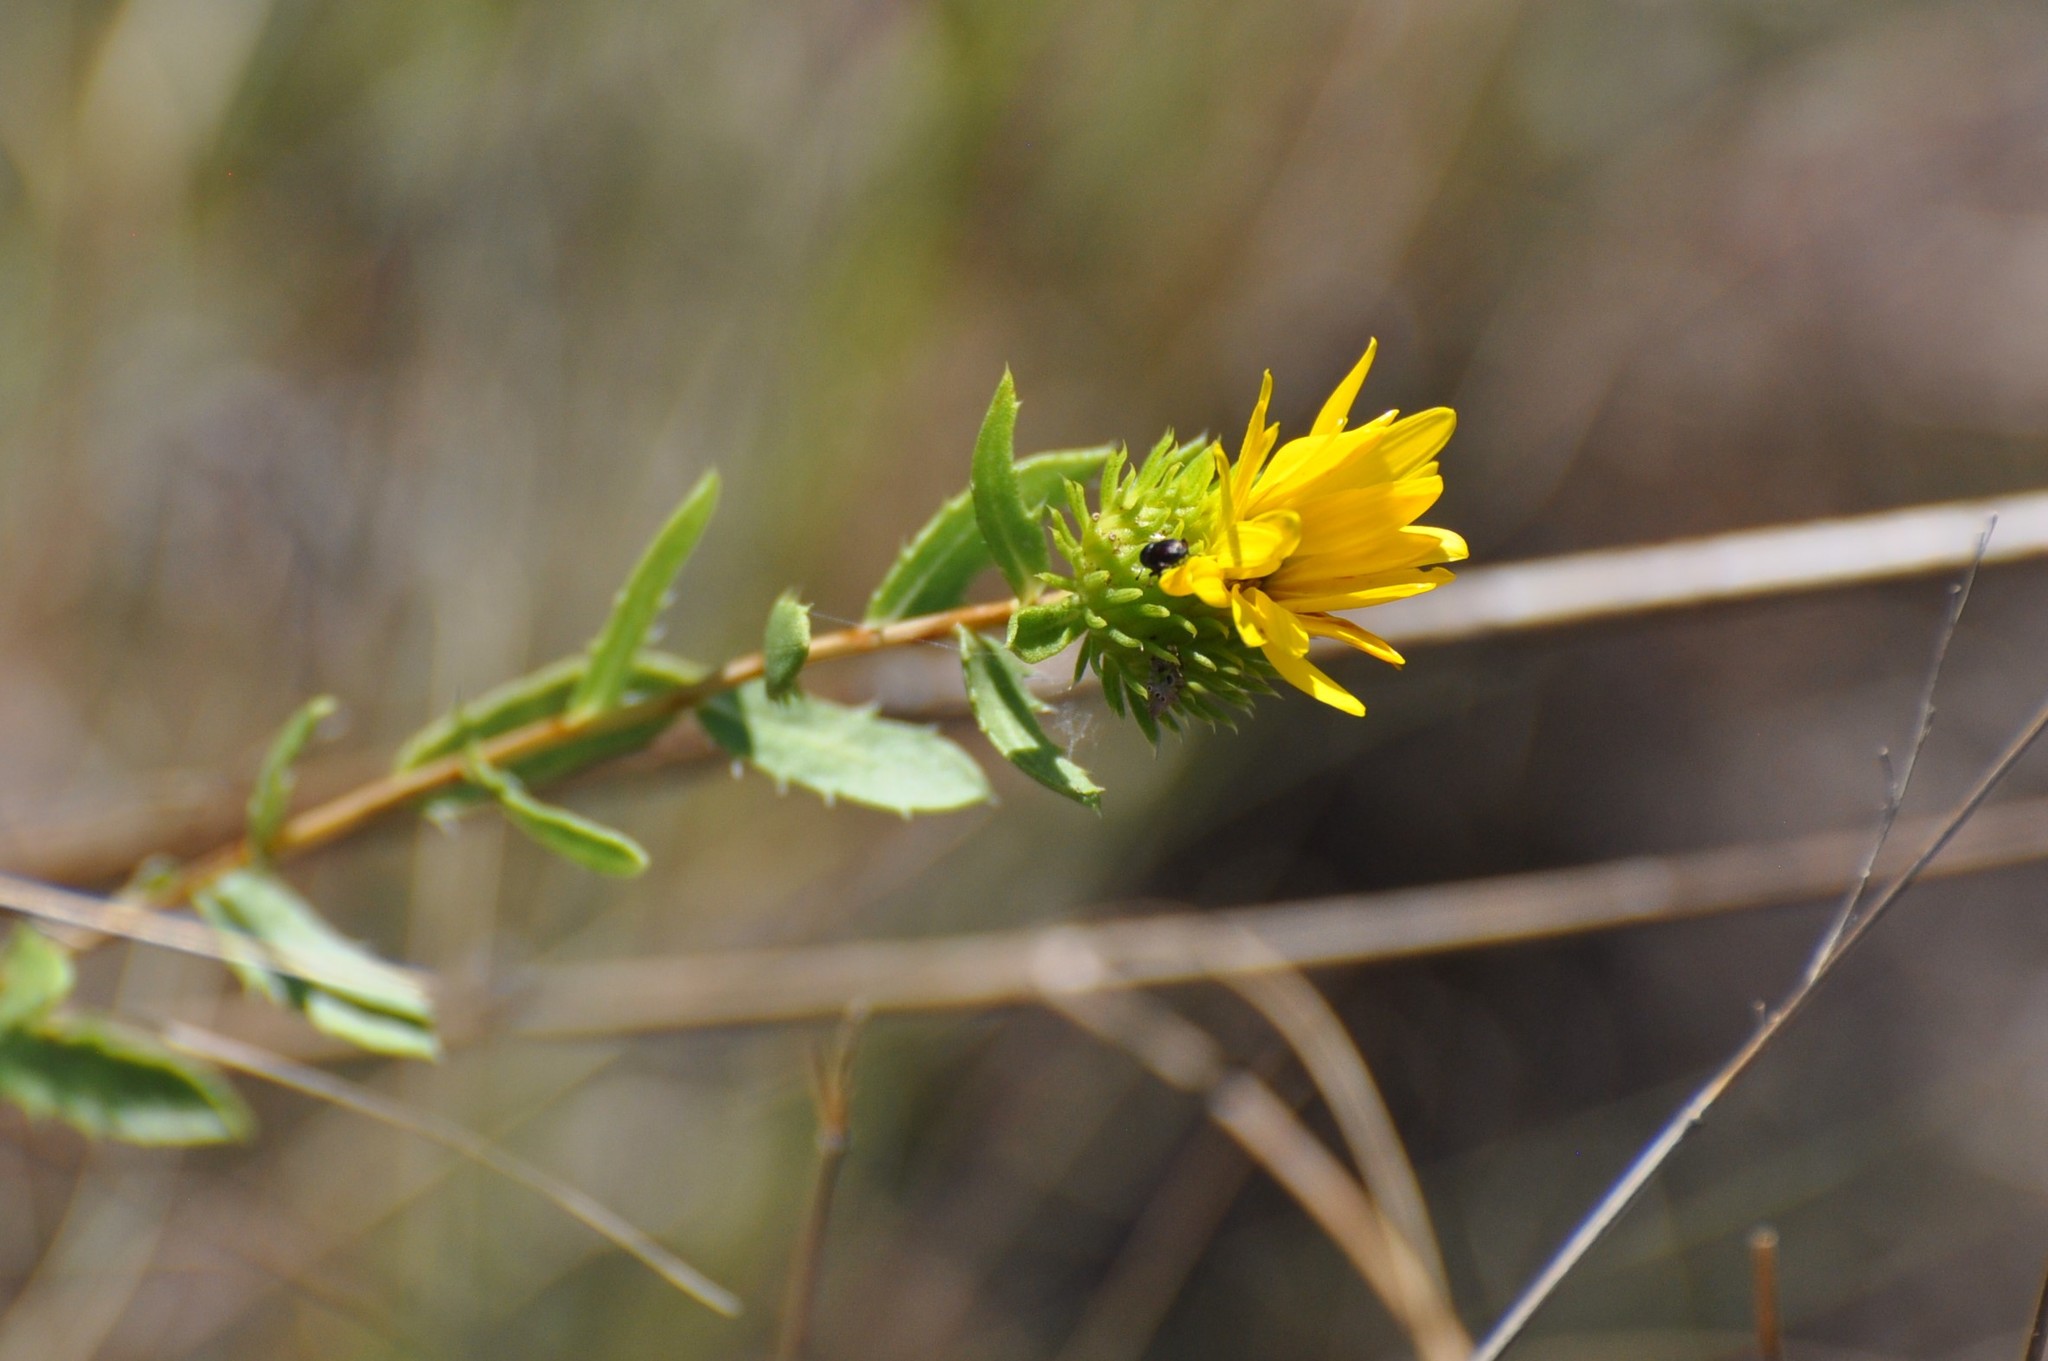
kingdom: Plantae
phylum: Tracheophyta
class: Magnoliopsida
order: Asterales
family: Asteraceae
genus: Grindelia
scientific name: Grindelia lanceolata
